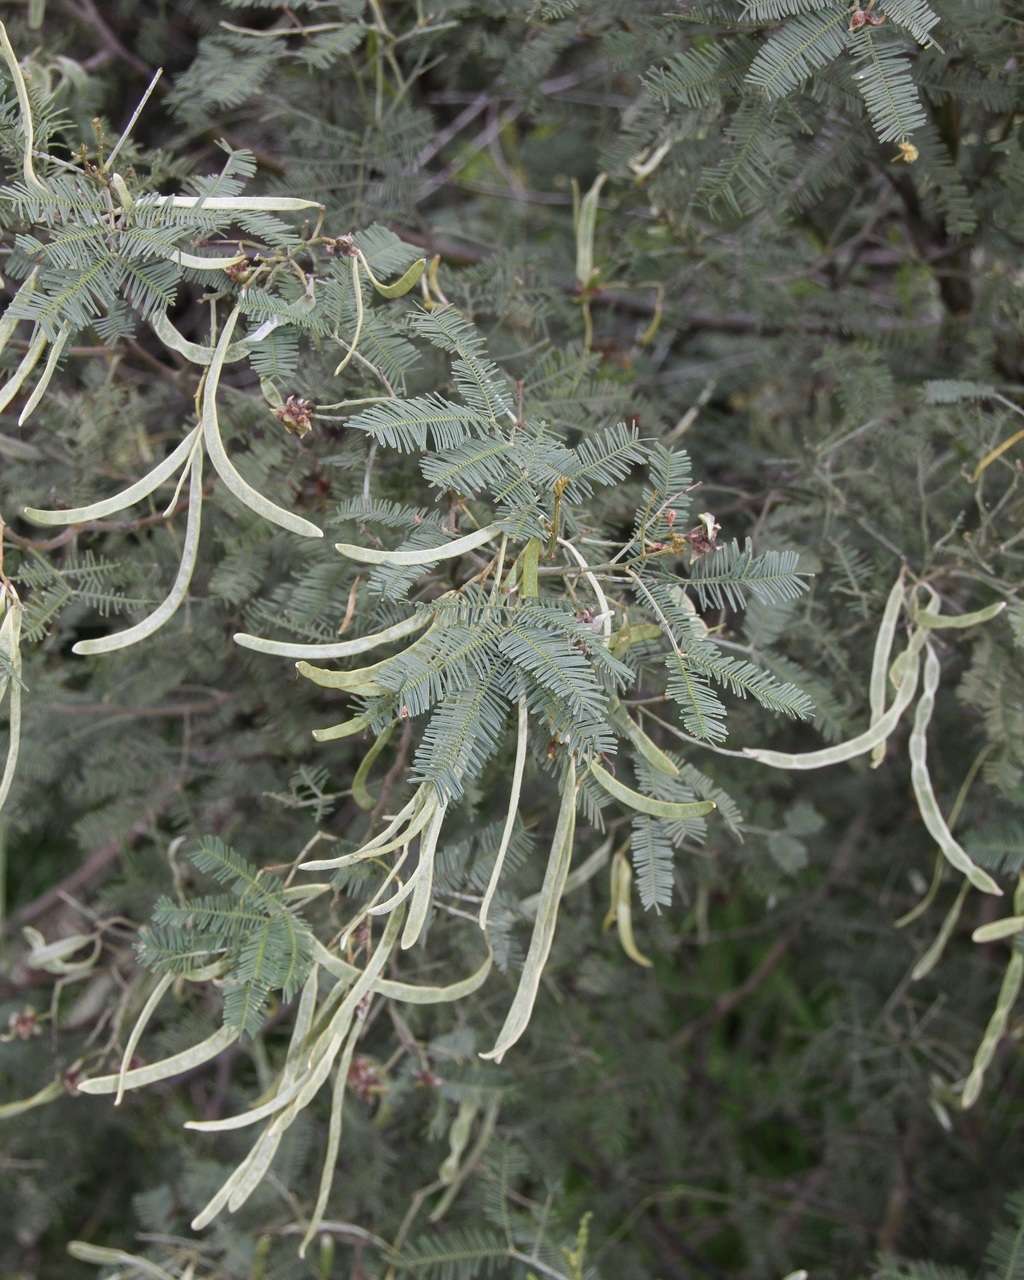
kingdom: Plantae
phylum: Tracheophyta
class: Magnoliopsida
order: Fabales
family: Fabaceae
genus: Acacia
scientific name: Acacia deanei
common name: Deane's wattle
